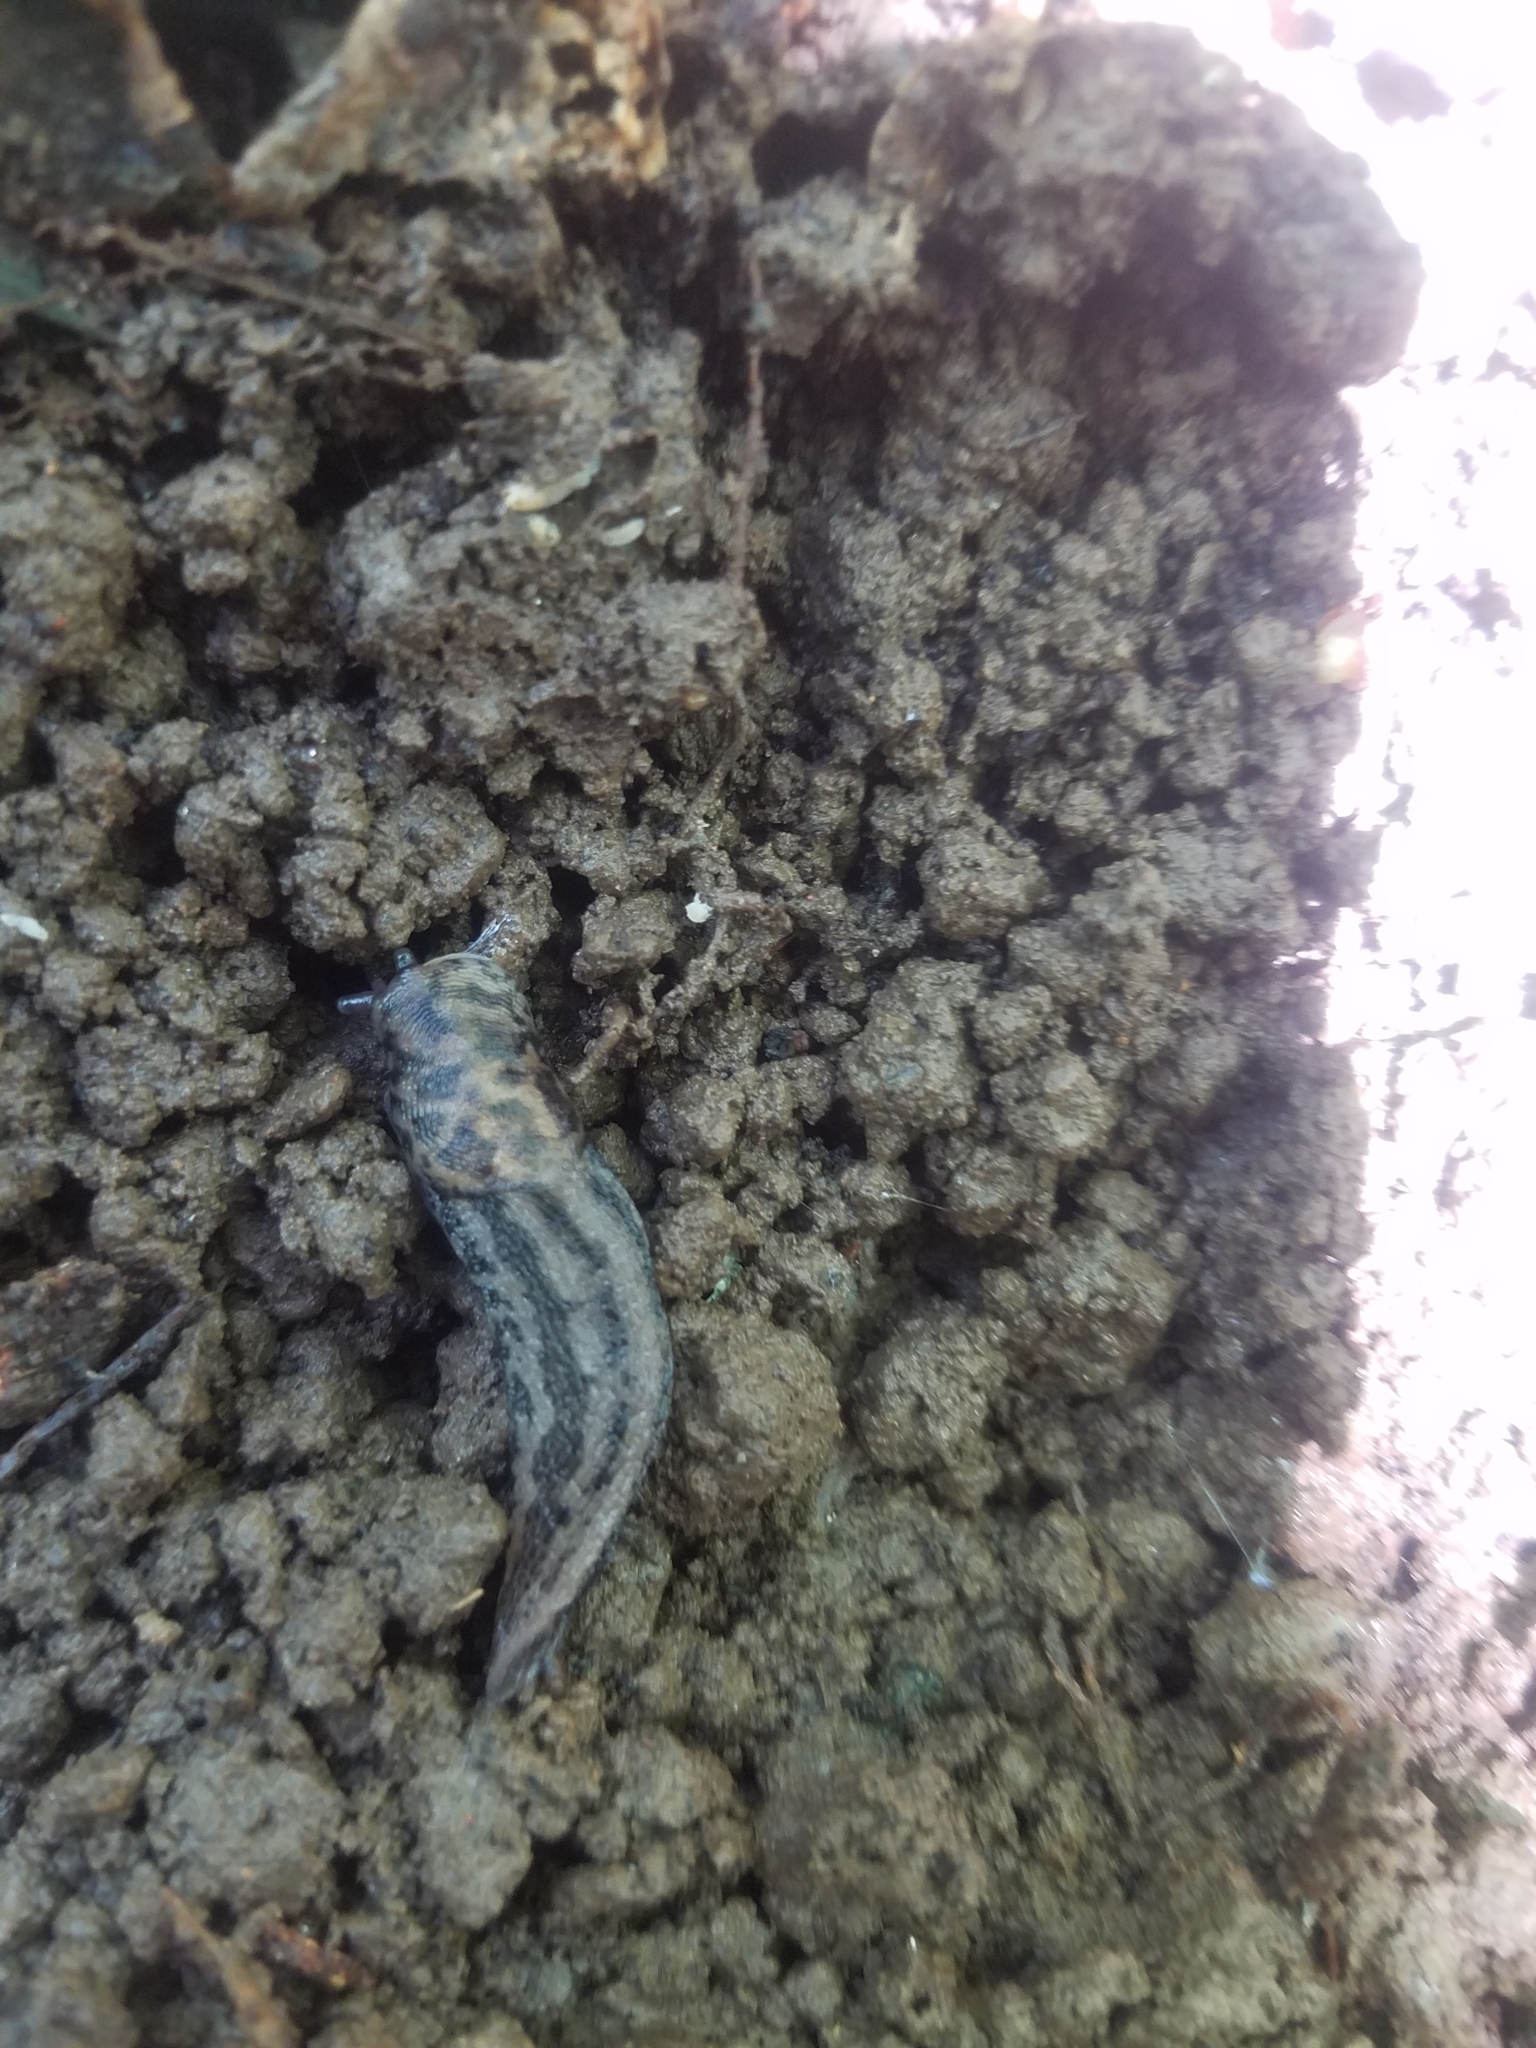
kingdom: Animalia
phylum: Mollusca
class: Gastropoda
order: Stylommatophora
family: Limacidae
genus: Limax
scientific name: Limax maximus
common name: Great grey slug
